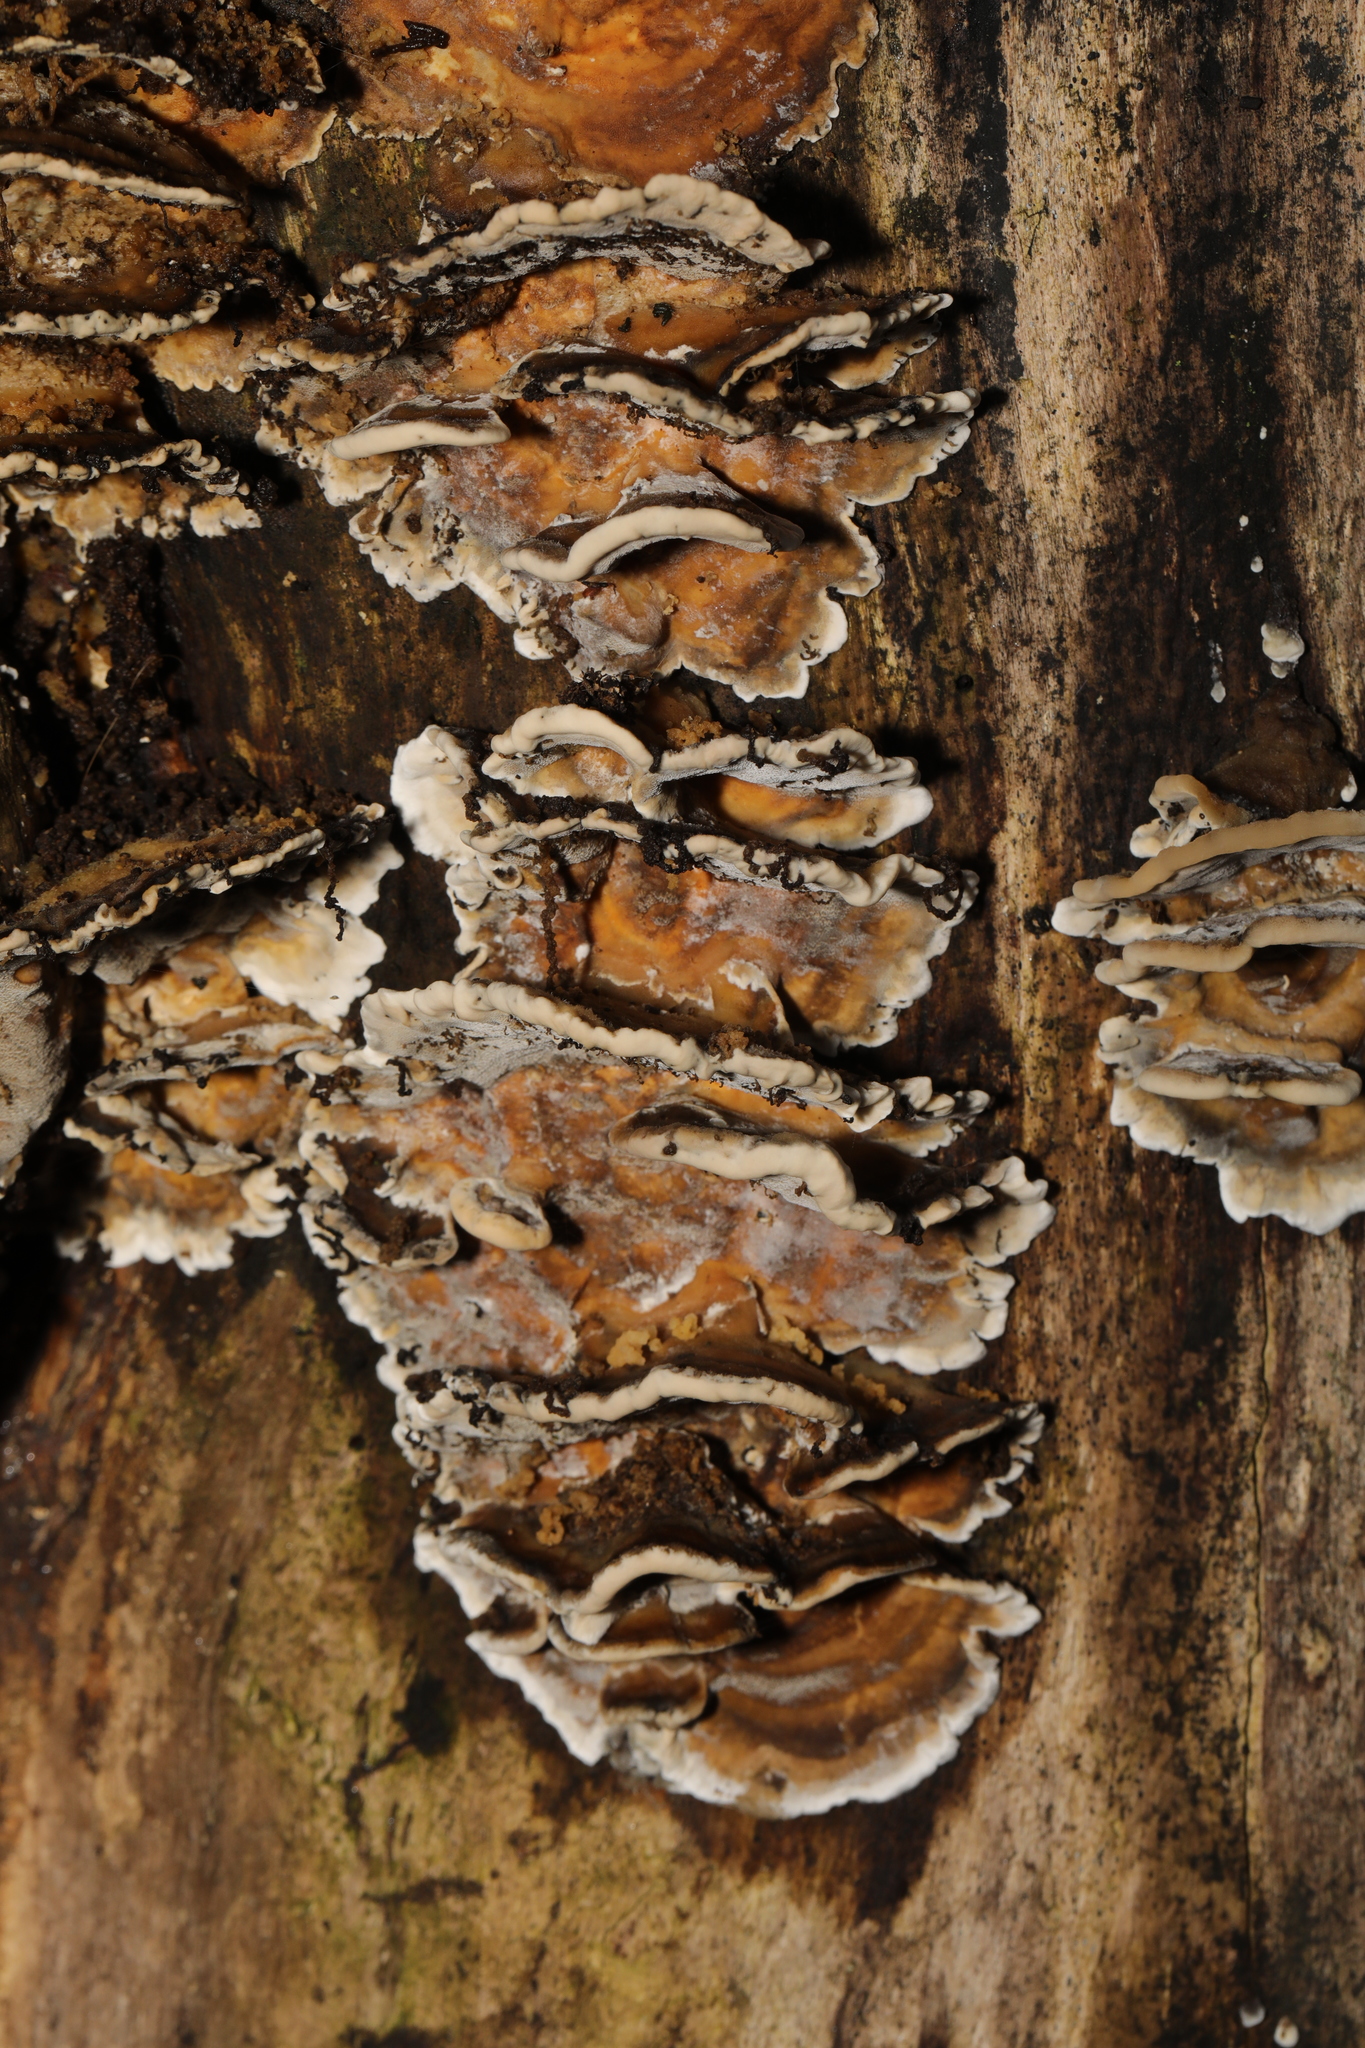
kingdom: Fungi
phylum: Basidiomycota
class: Agaricomycetes
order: Polyporales
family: Phanerochaetaceae
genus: Bjerkandera
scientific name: Bjerkandera adusta
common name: Smoky bracket
